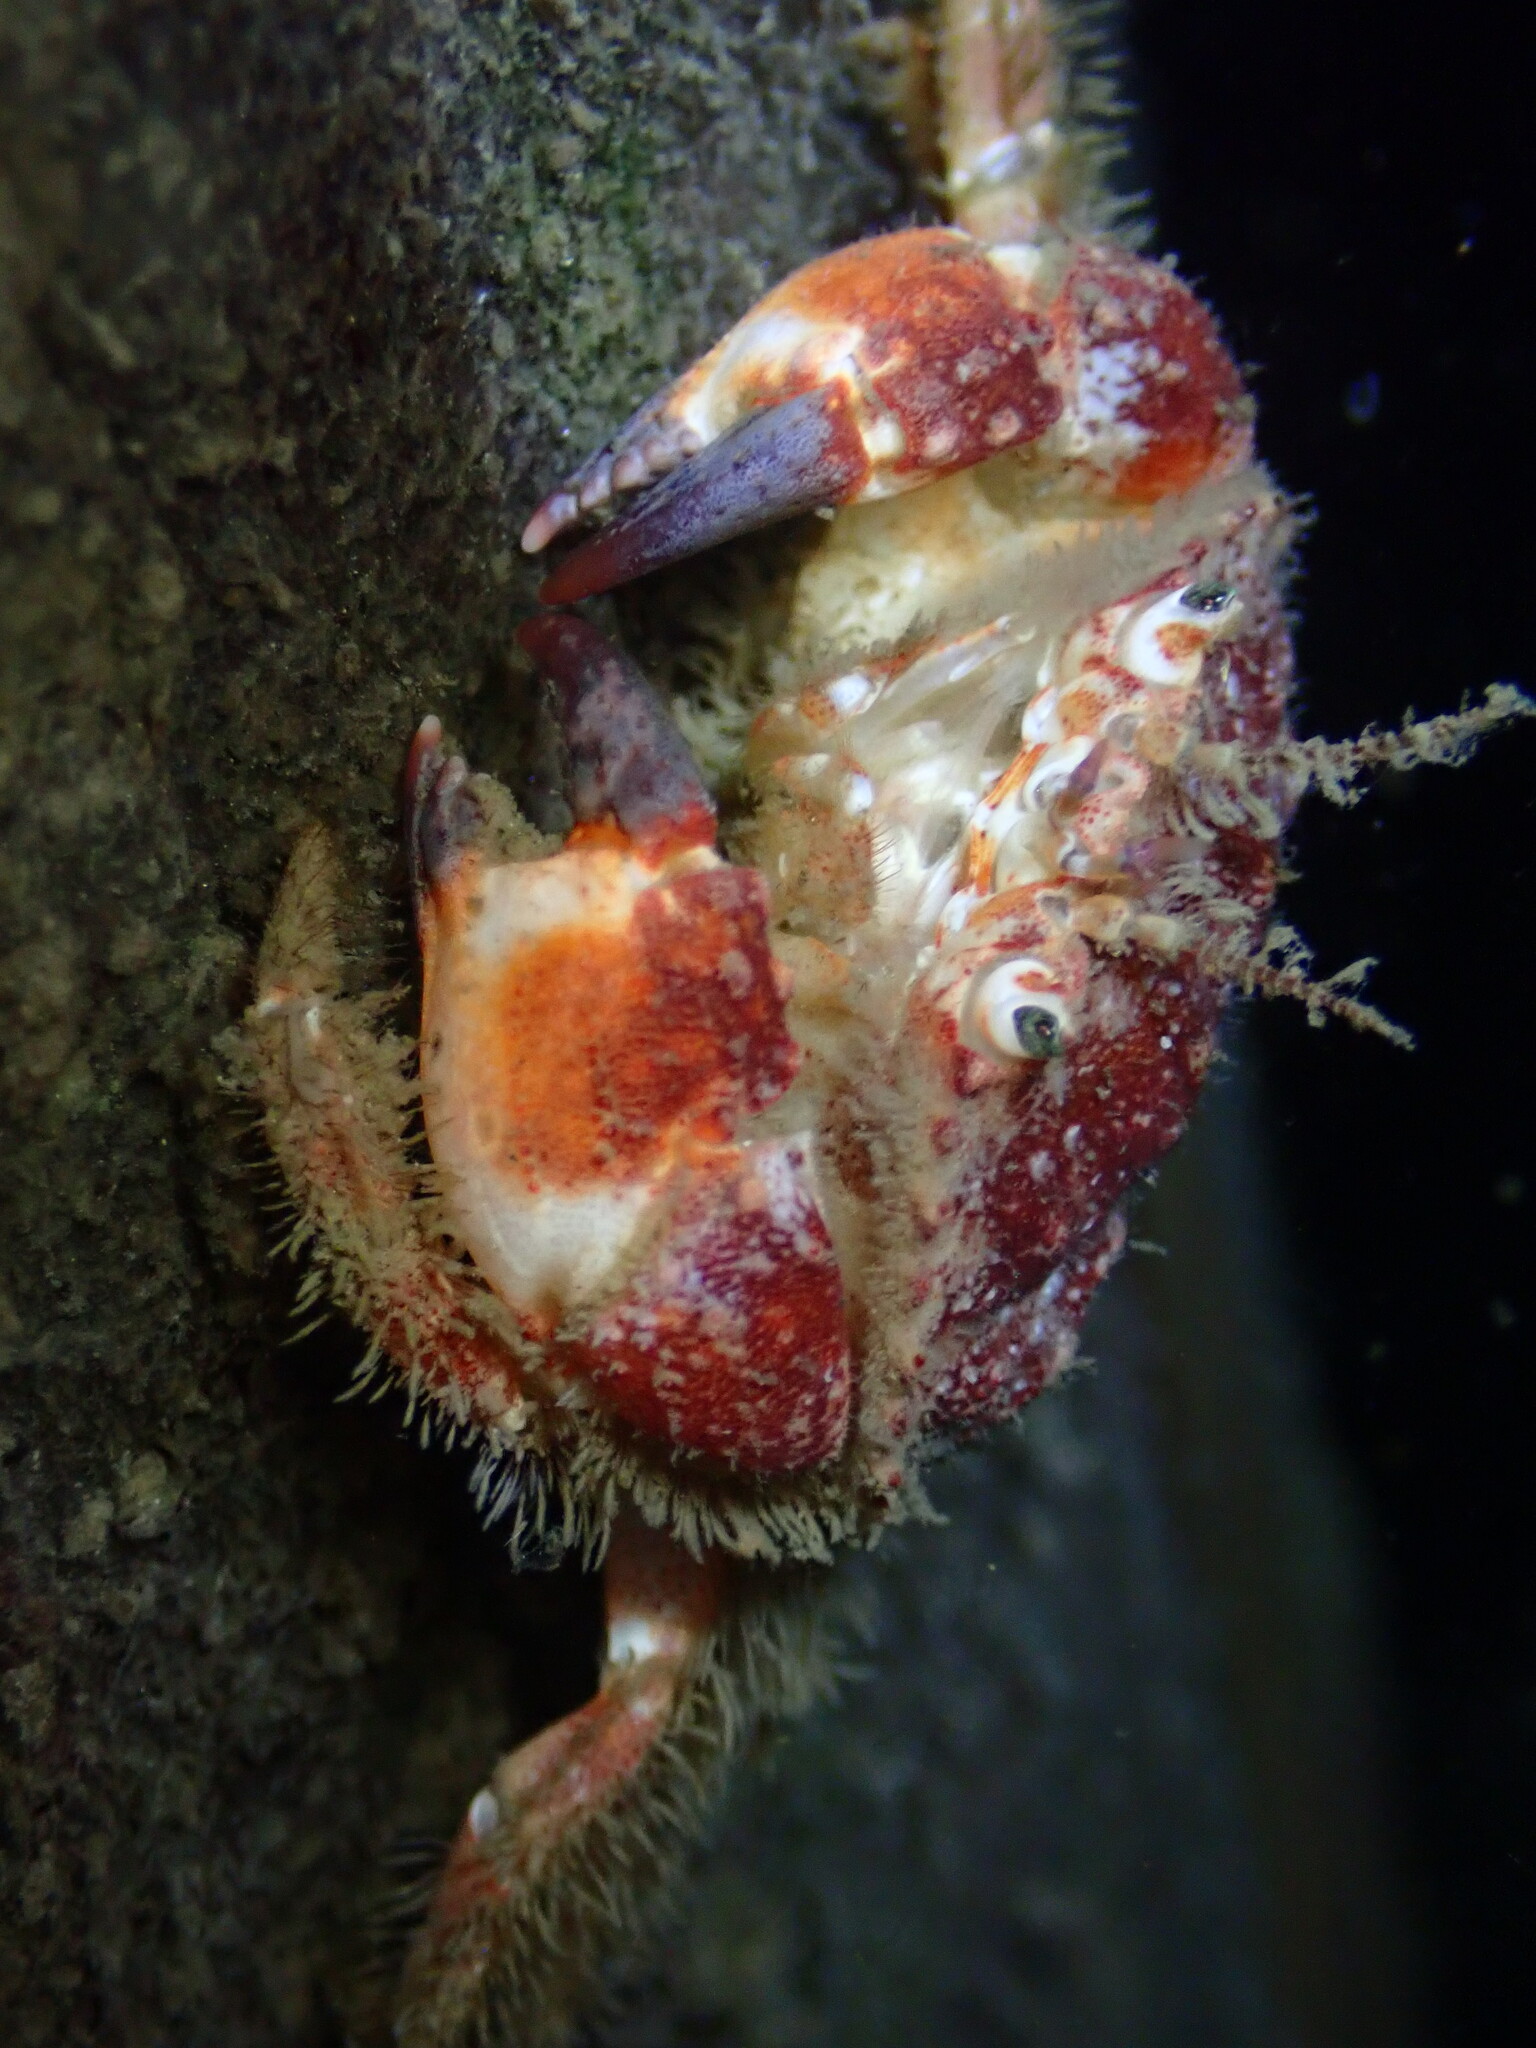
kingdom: Animalia
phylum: Arthropoda
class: Malacostraca
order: Decapoda
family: Cancridae
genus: Glebocarcinus
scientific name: Glebocarcinus oregonensis
